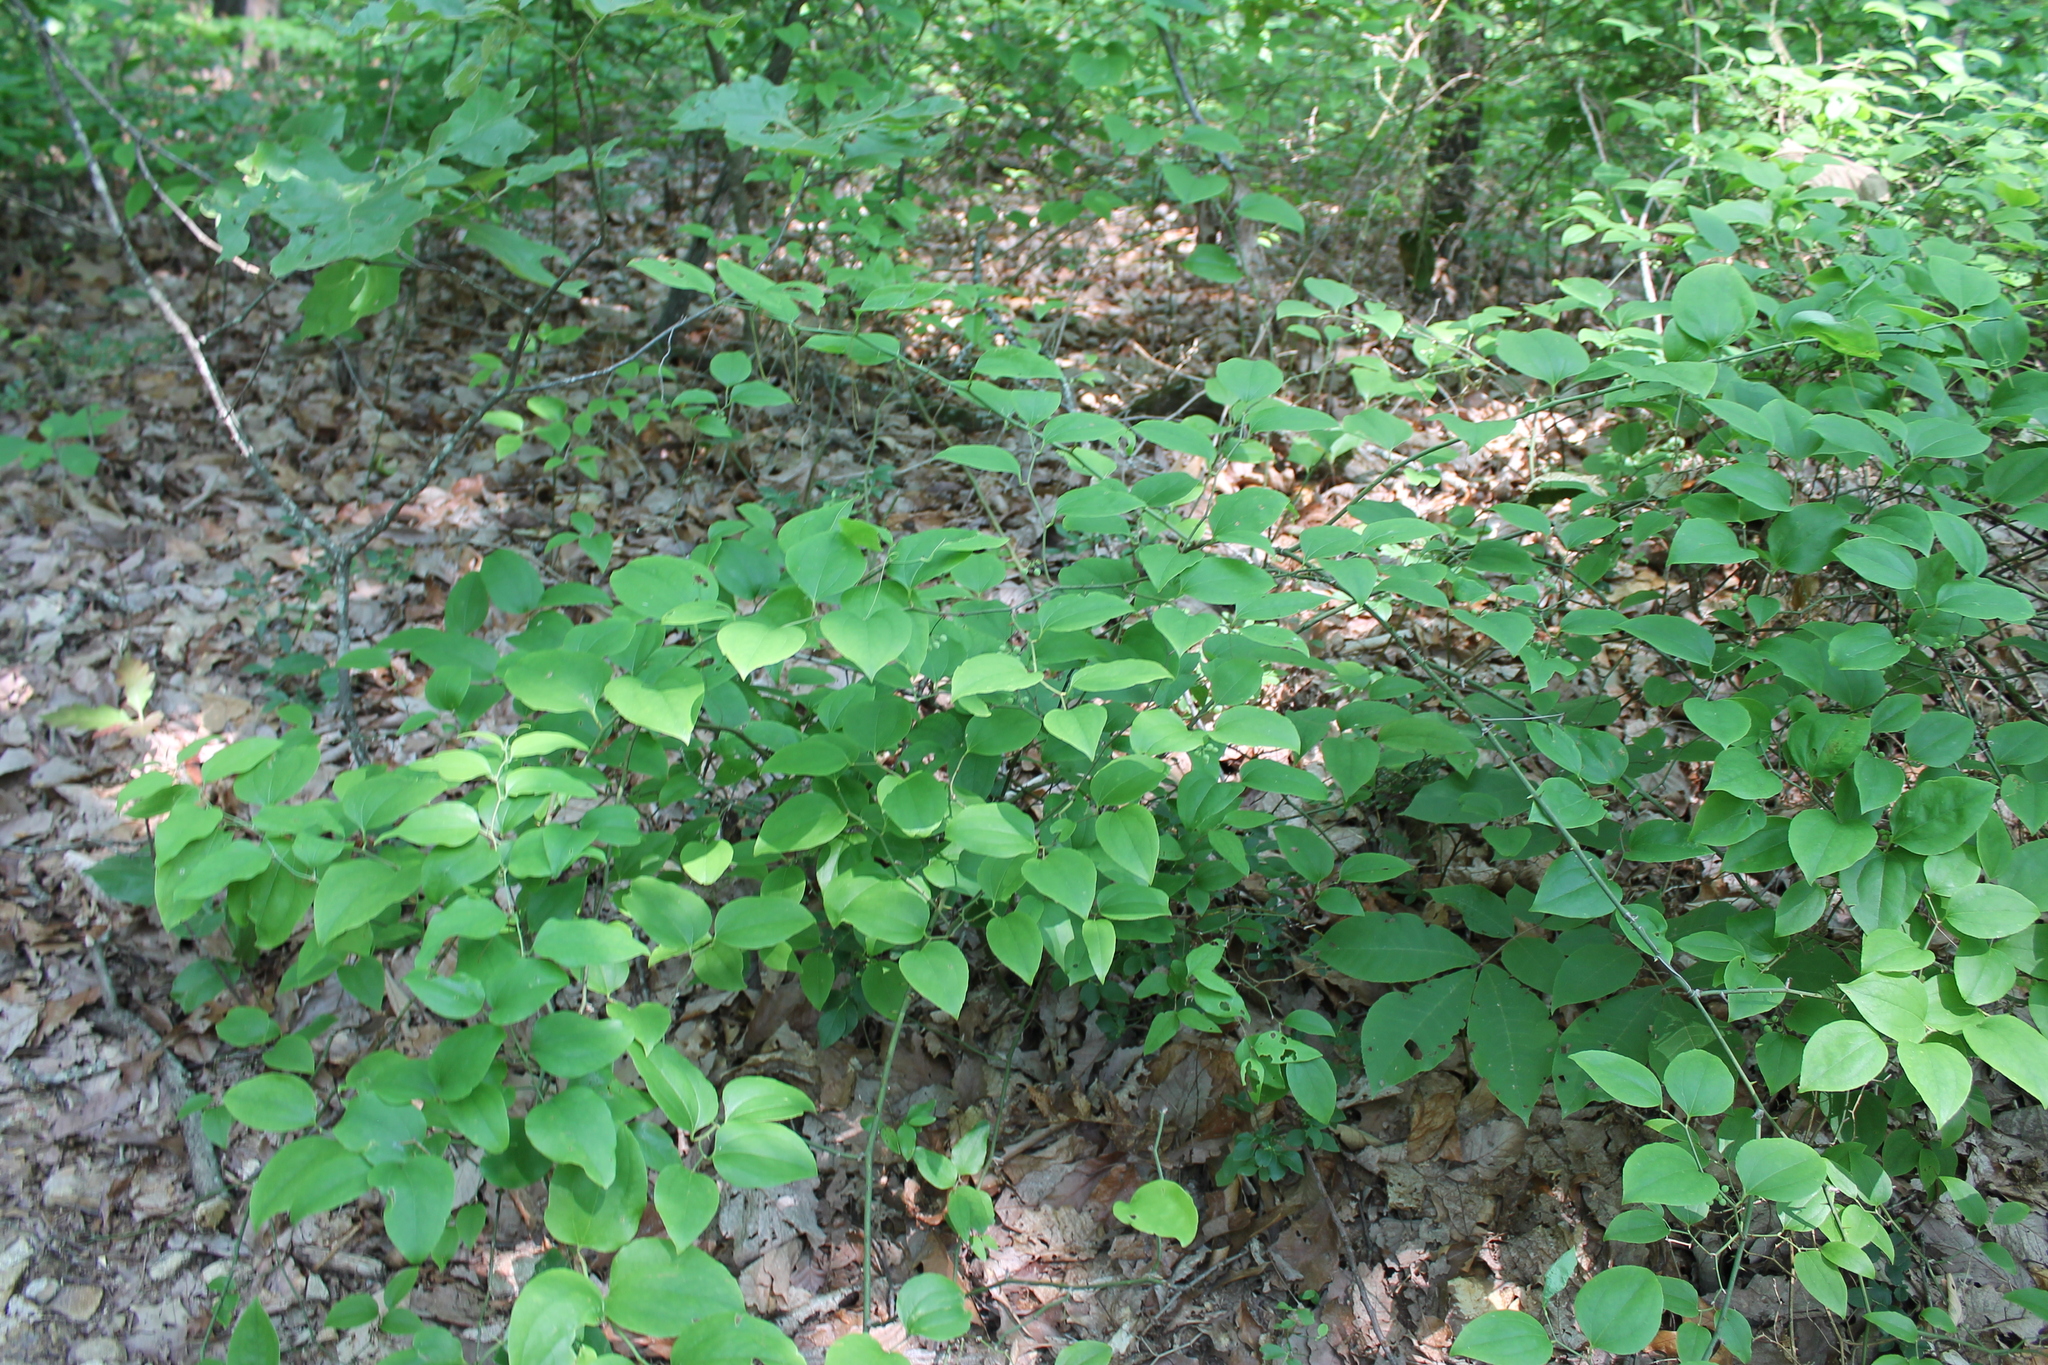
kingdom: Plantae
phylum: Tracheophyta
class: Liliopsida
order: Liliales
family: Smilacaceae
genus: Smilax
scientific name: Smilax rotundifolia
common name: Bullbriar
